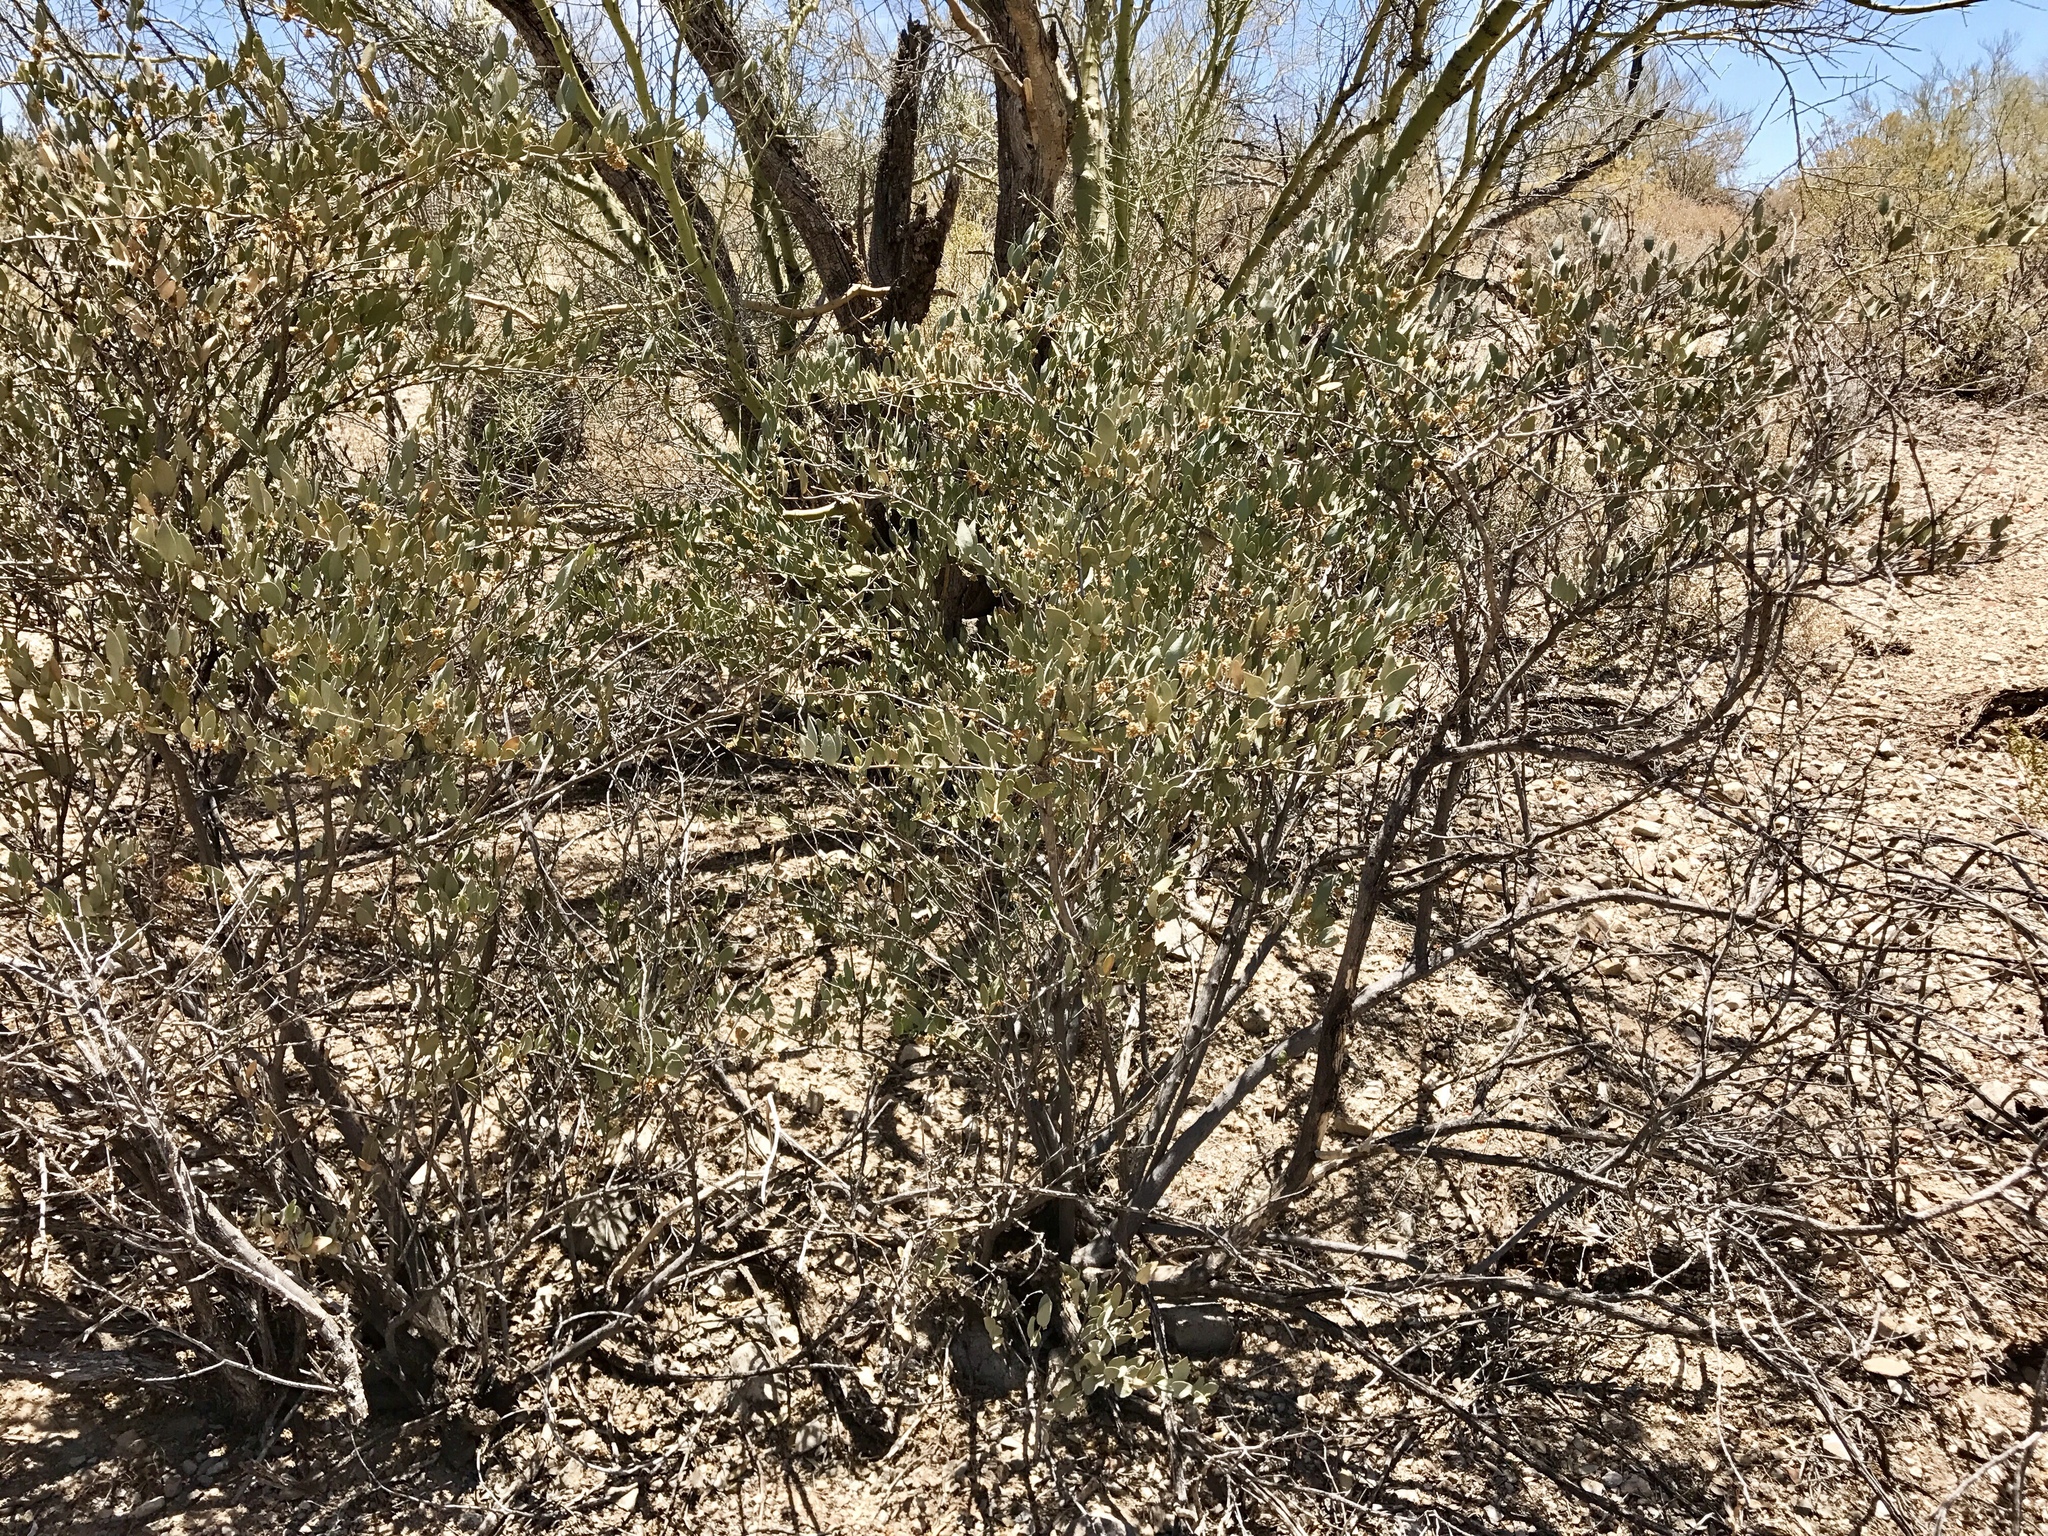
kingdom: Plantae
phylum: Tracheophyta
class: Magnoliopsida
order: Zygophyllales
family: Zygophyllaceae
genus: Larrea
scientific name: Larrea tridentata
